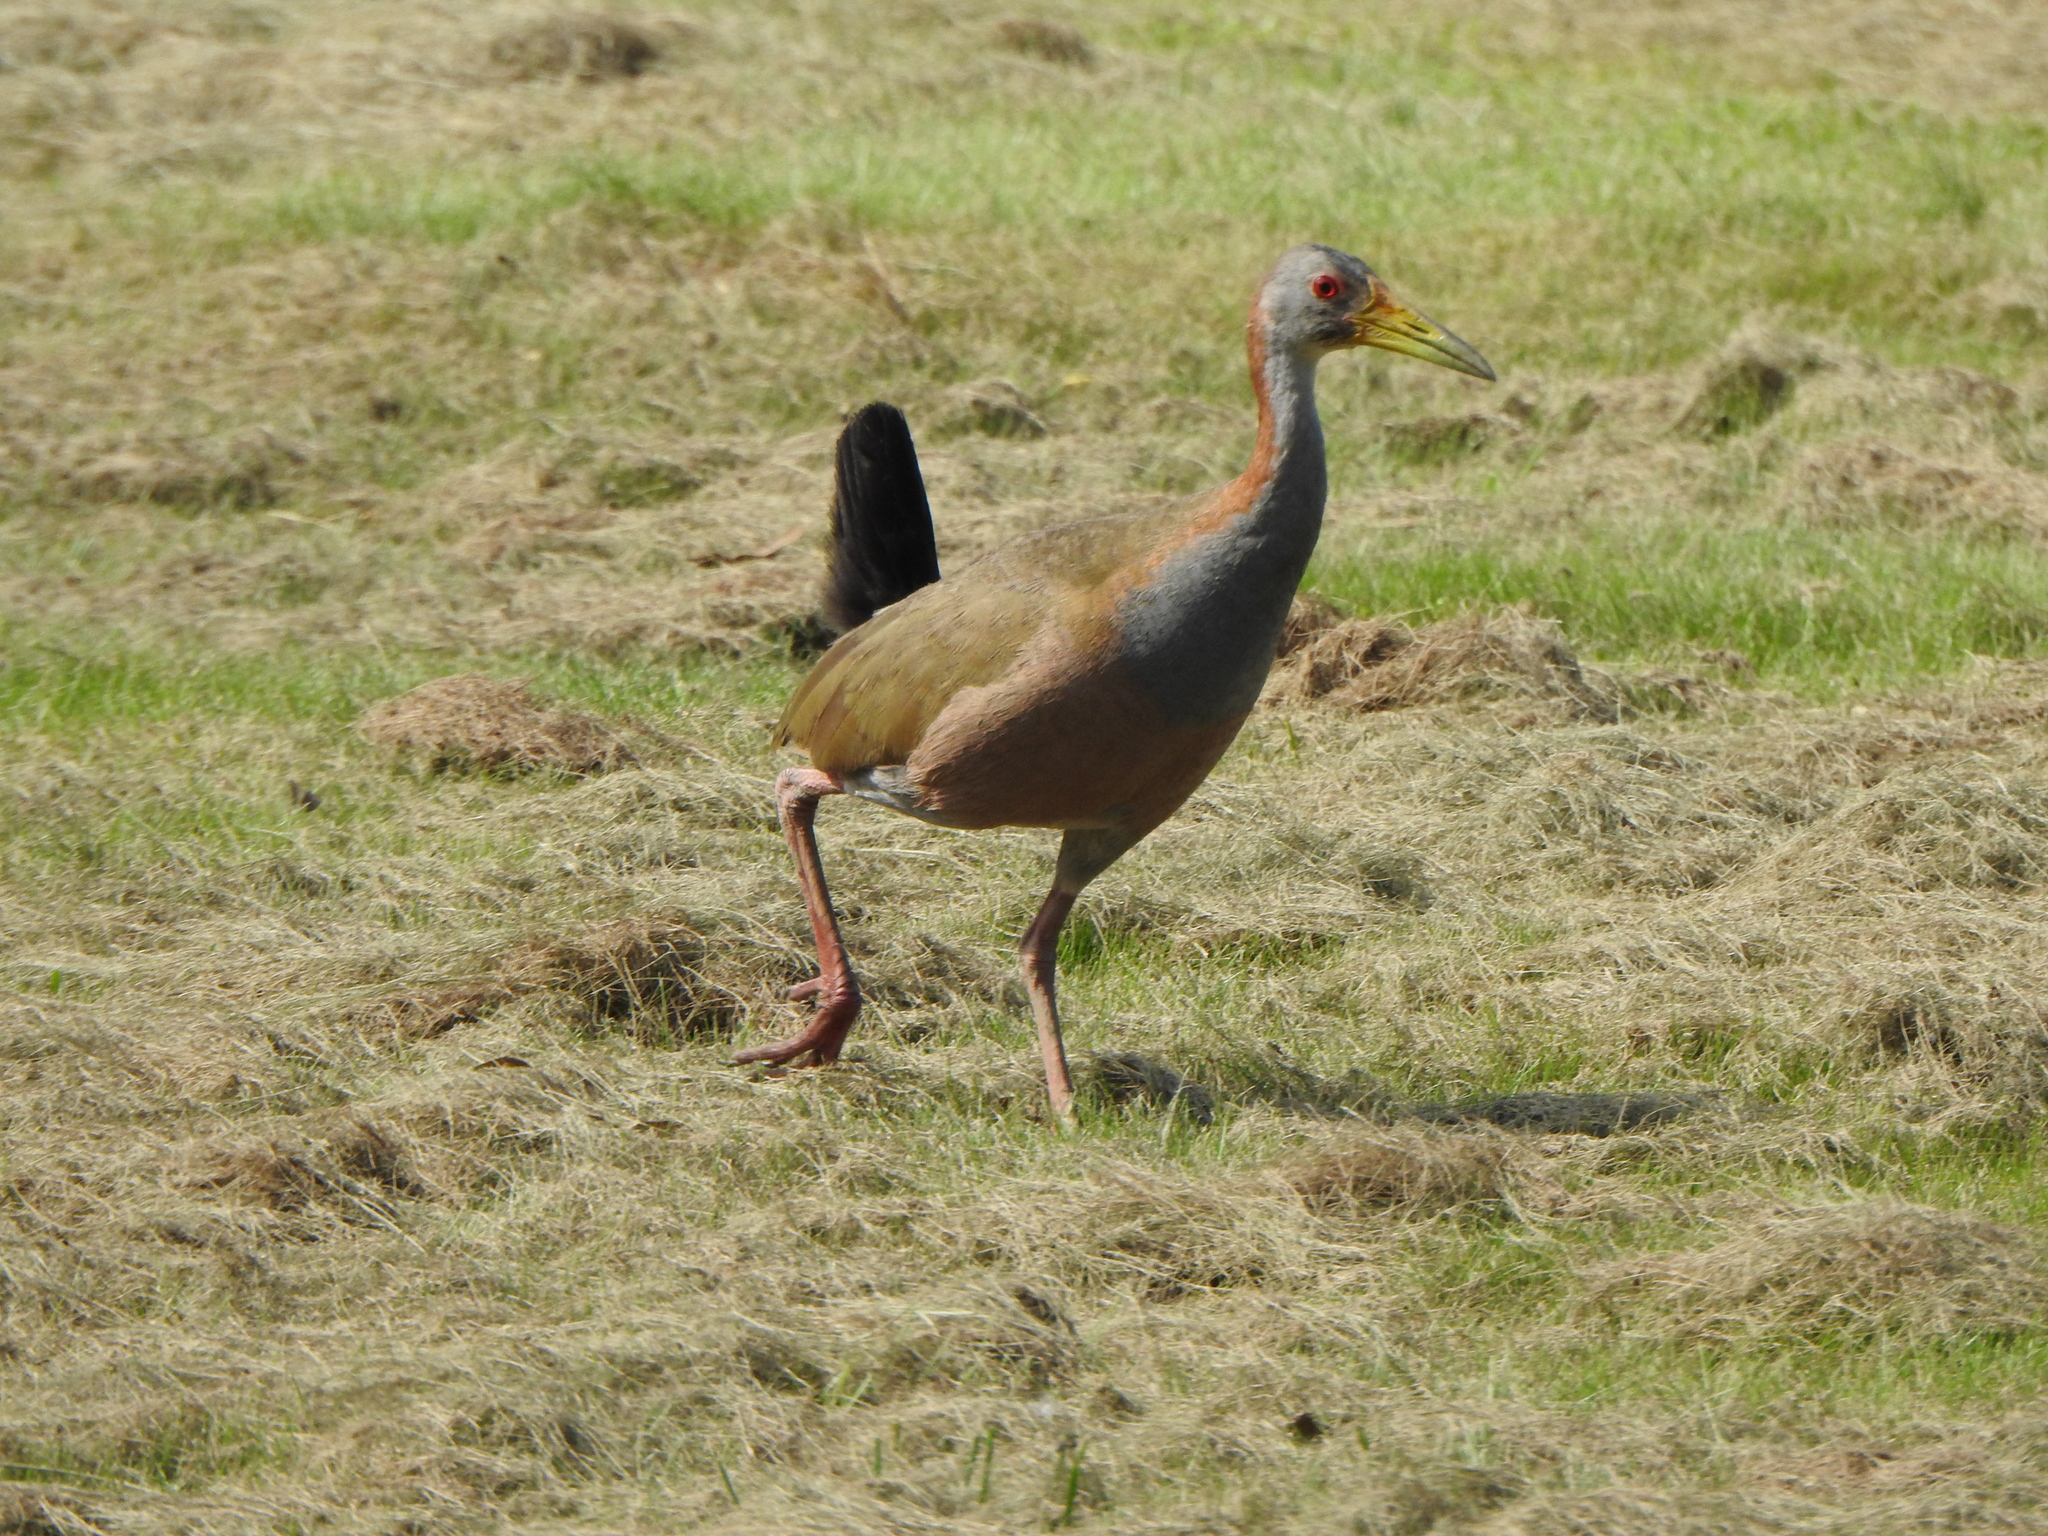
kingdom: Animalia
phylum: Chordata
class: Aves
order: Gruiformes
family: Rallidae
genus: Aramides
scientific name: Aramides ypecaha
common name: Giant wood rail
